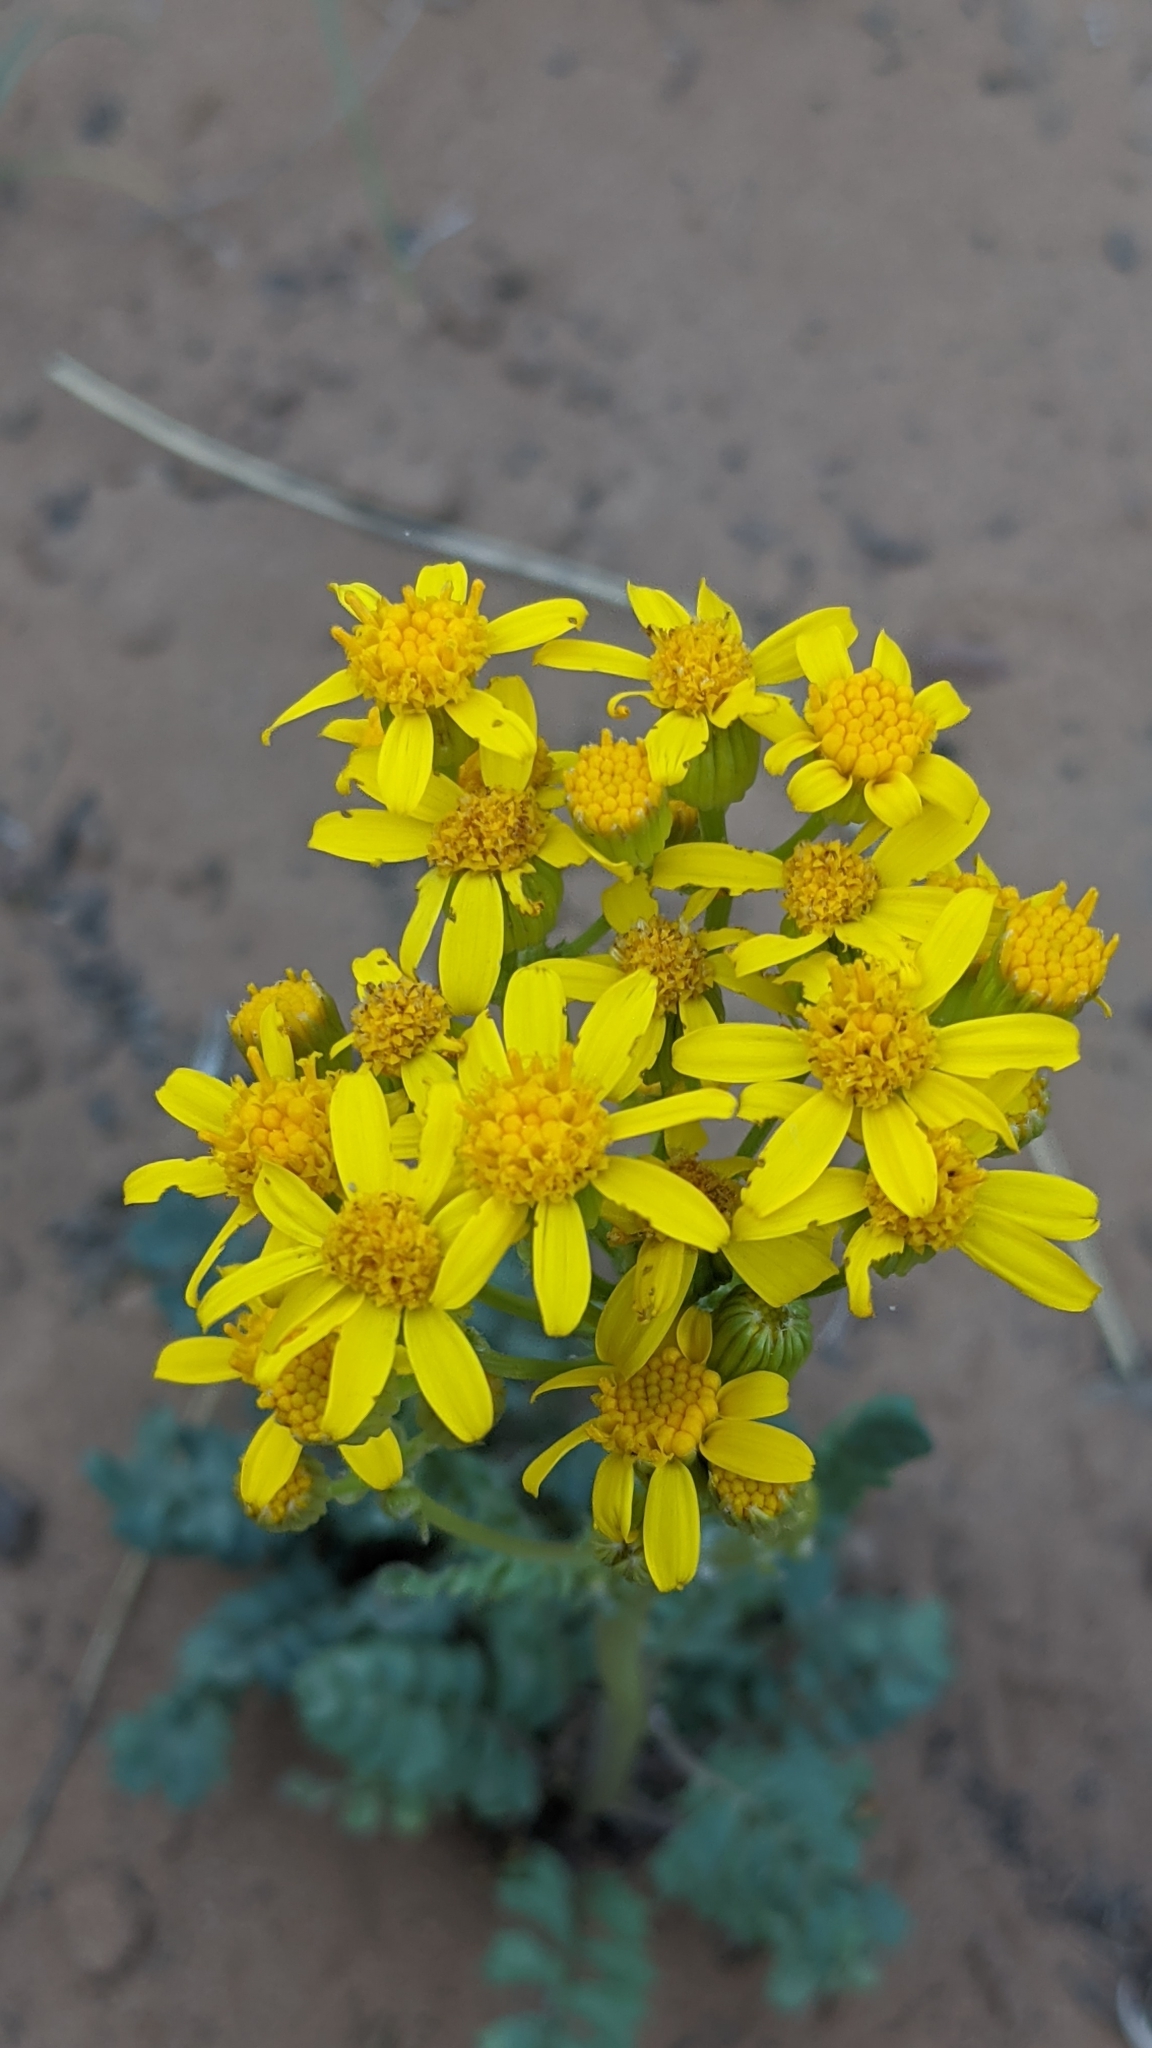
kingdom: Plantae
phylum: Tracheophyta
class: Magnoliopsida
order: Asterales
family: Asteraceae
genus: Packera
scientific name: Packera multilobata
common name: Lobe-leaf groundsel
